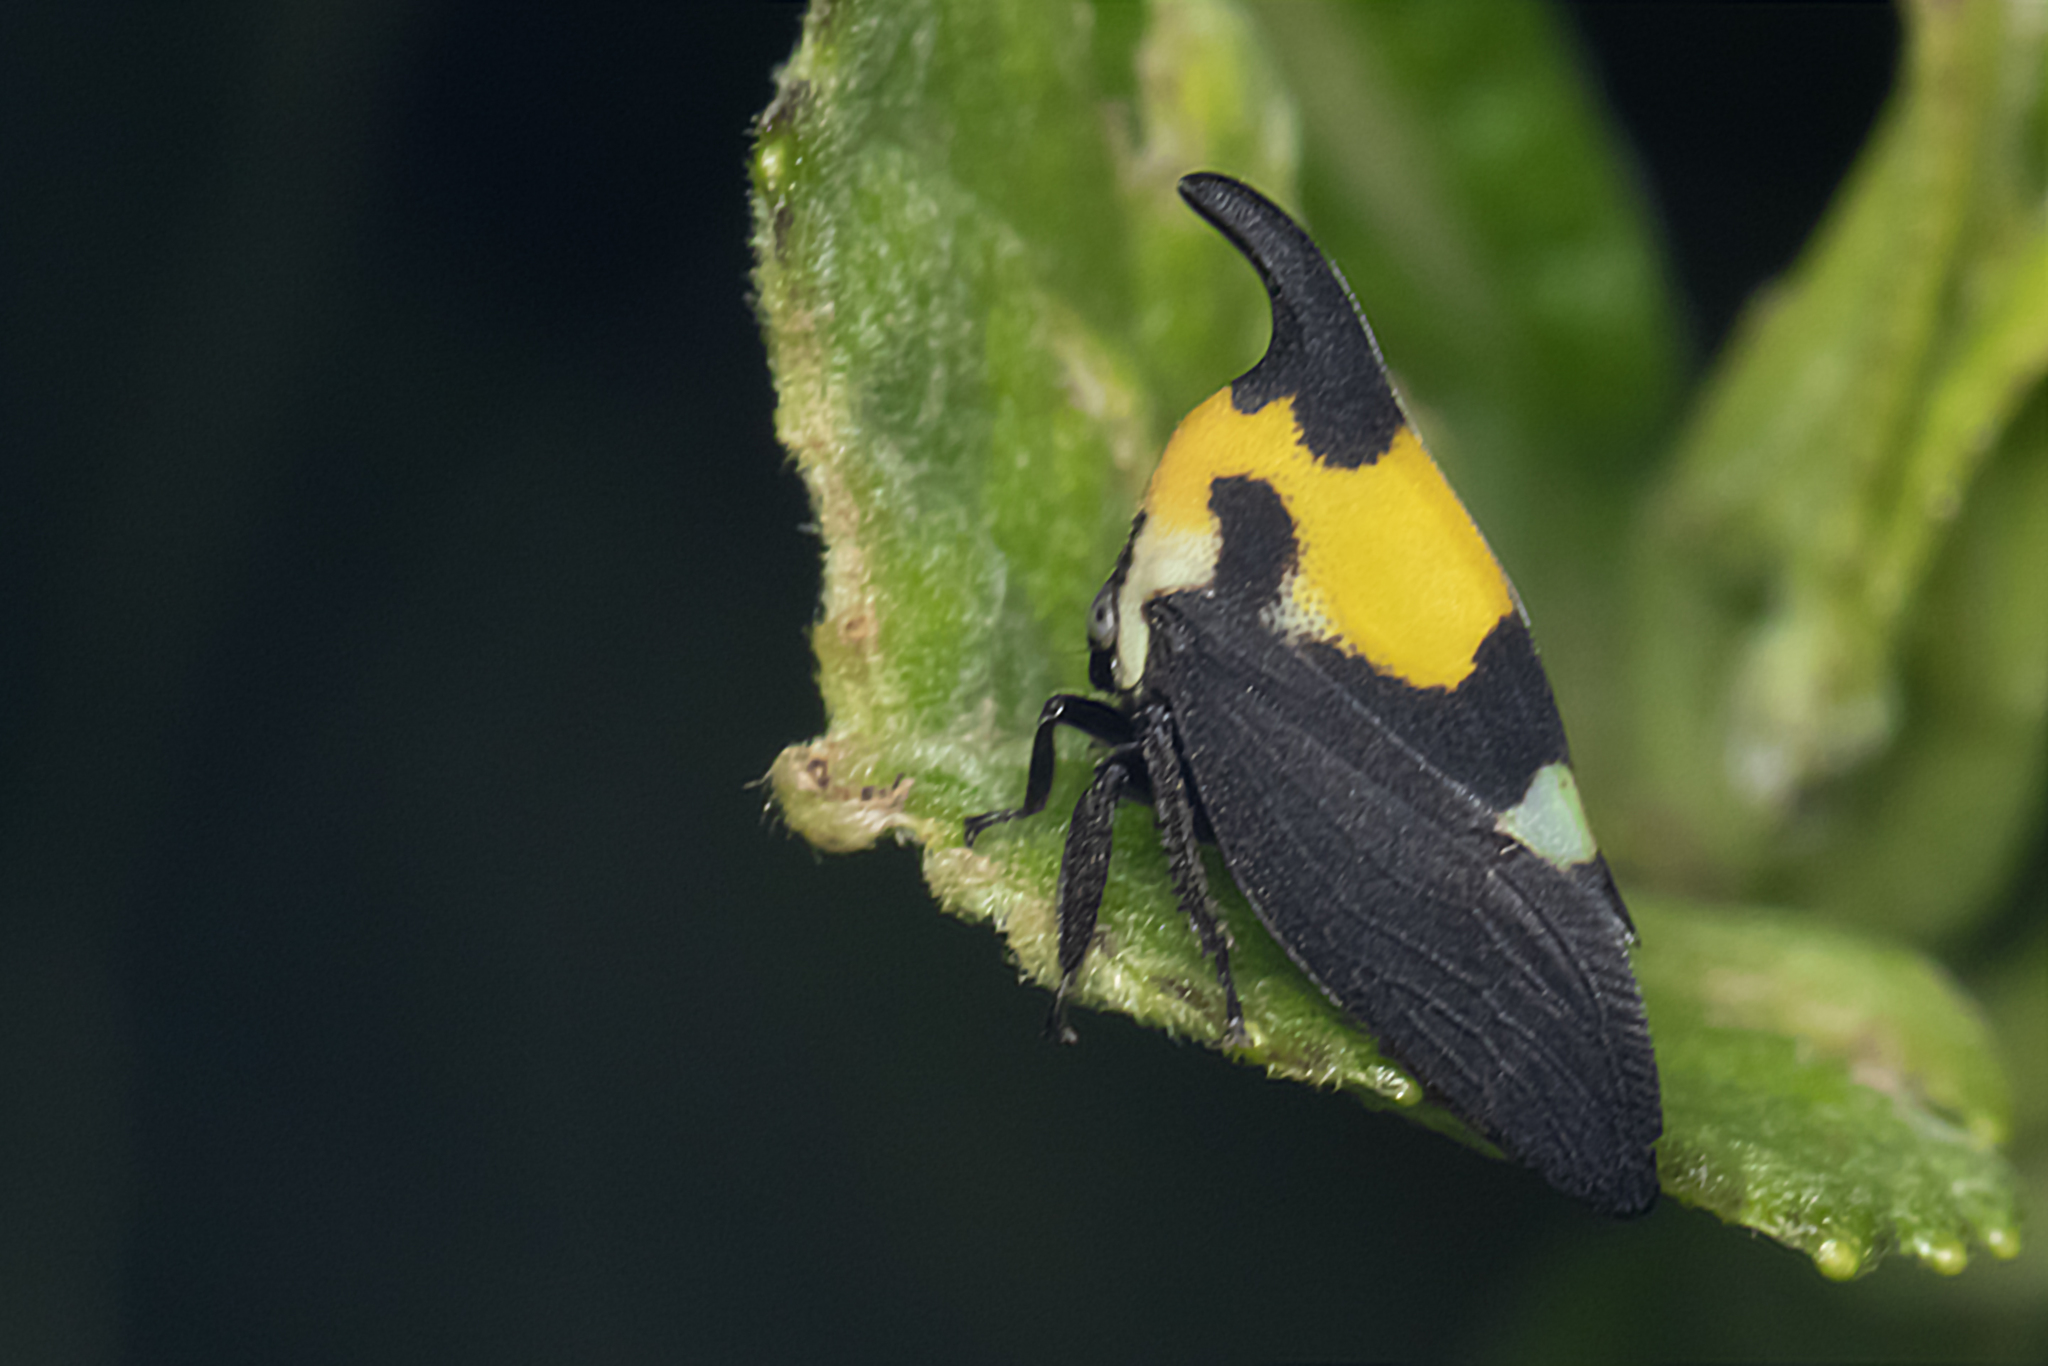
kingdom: Animalia
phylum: Arthropoda
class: Insecta
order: Hemiptera
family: Membracidae
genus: Enchophyllum
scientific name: Enchophyllum quinquemaculata
